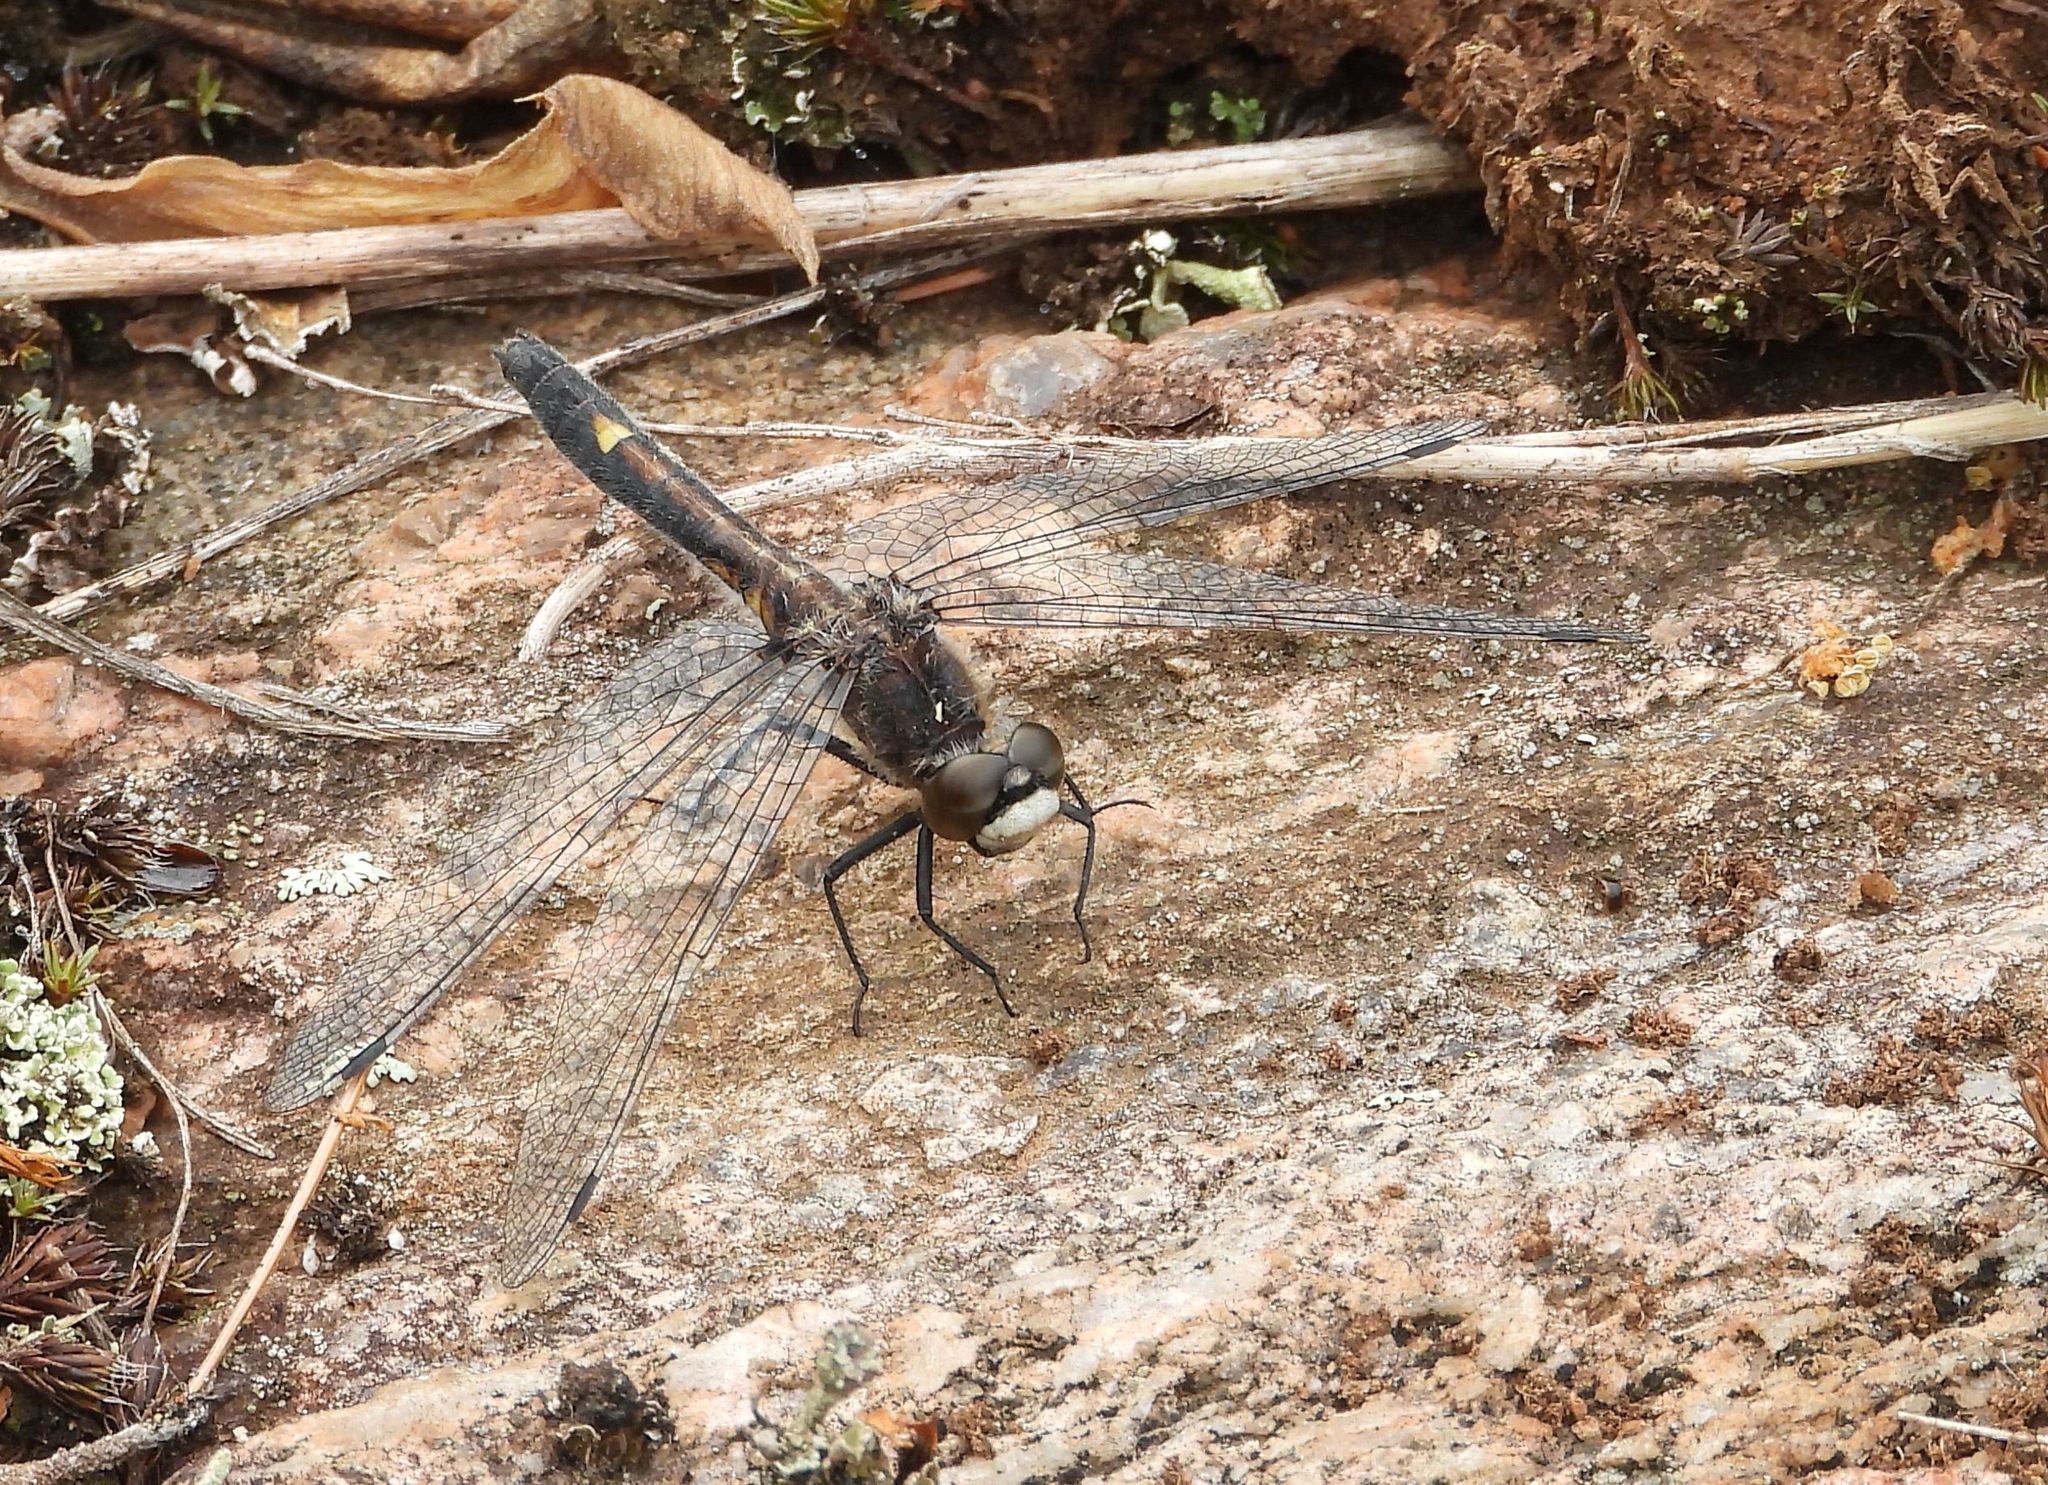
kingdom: Animalia
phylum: Arthropoda
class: Insecta
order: Odonata
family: Libellulidae
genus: Leucorrhinia
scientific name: Leucorrhinia intacta
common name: Dot-tailed whiteface
